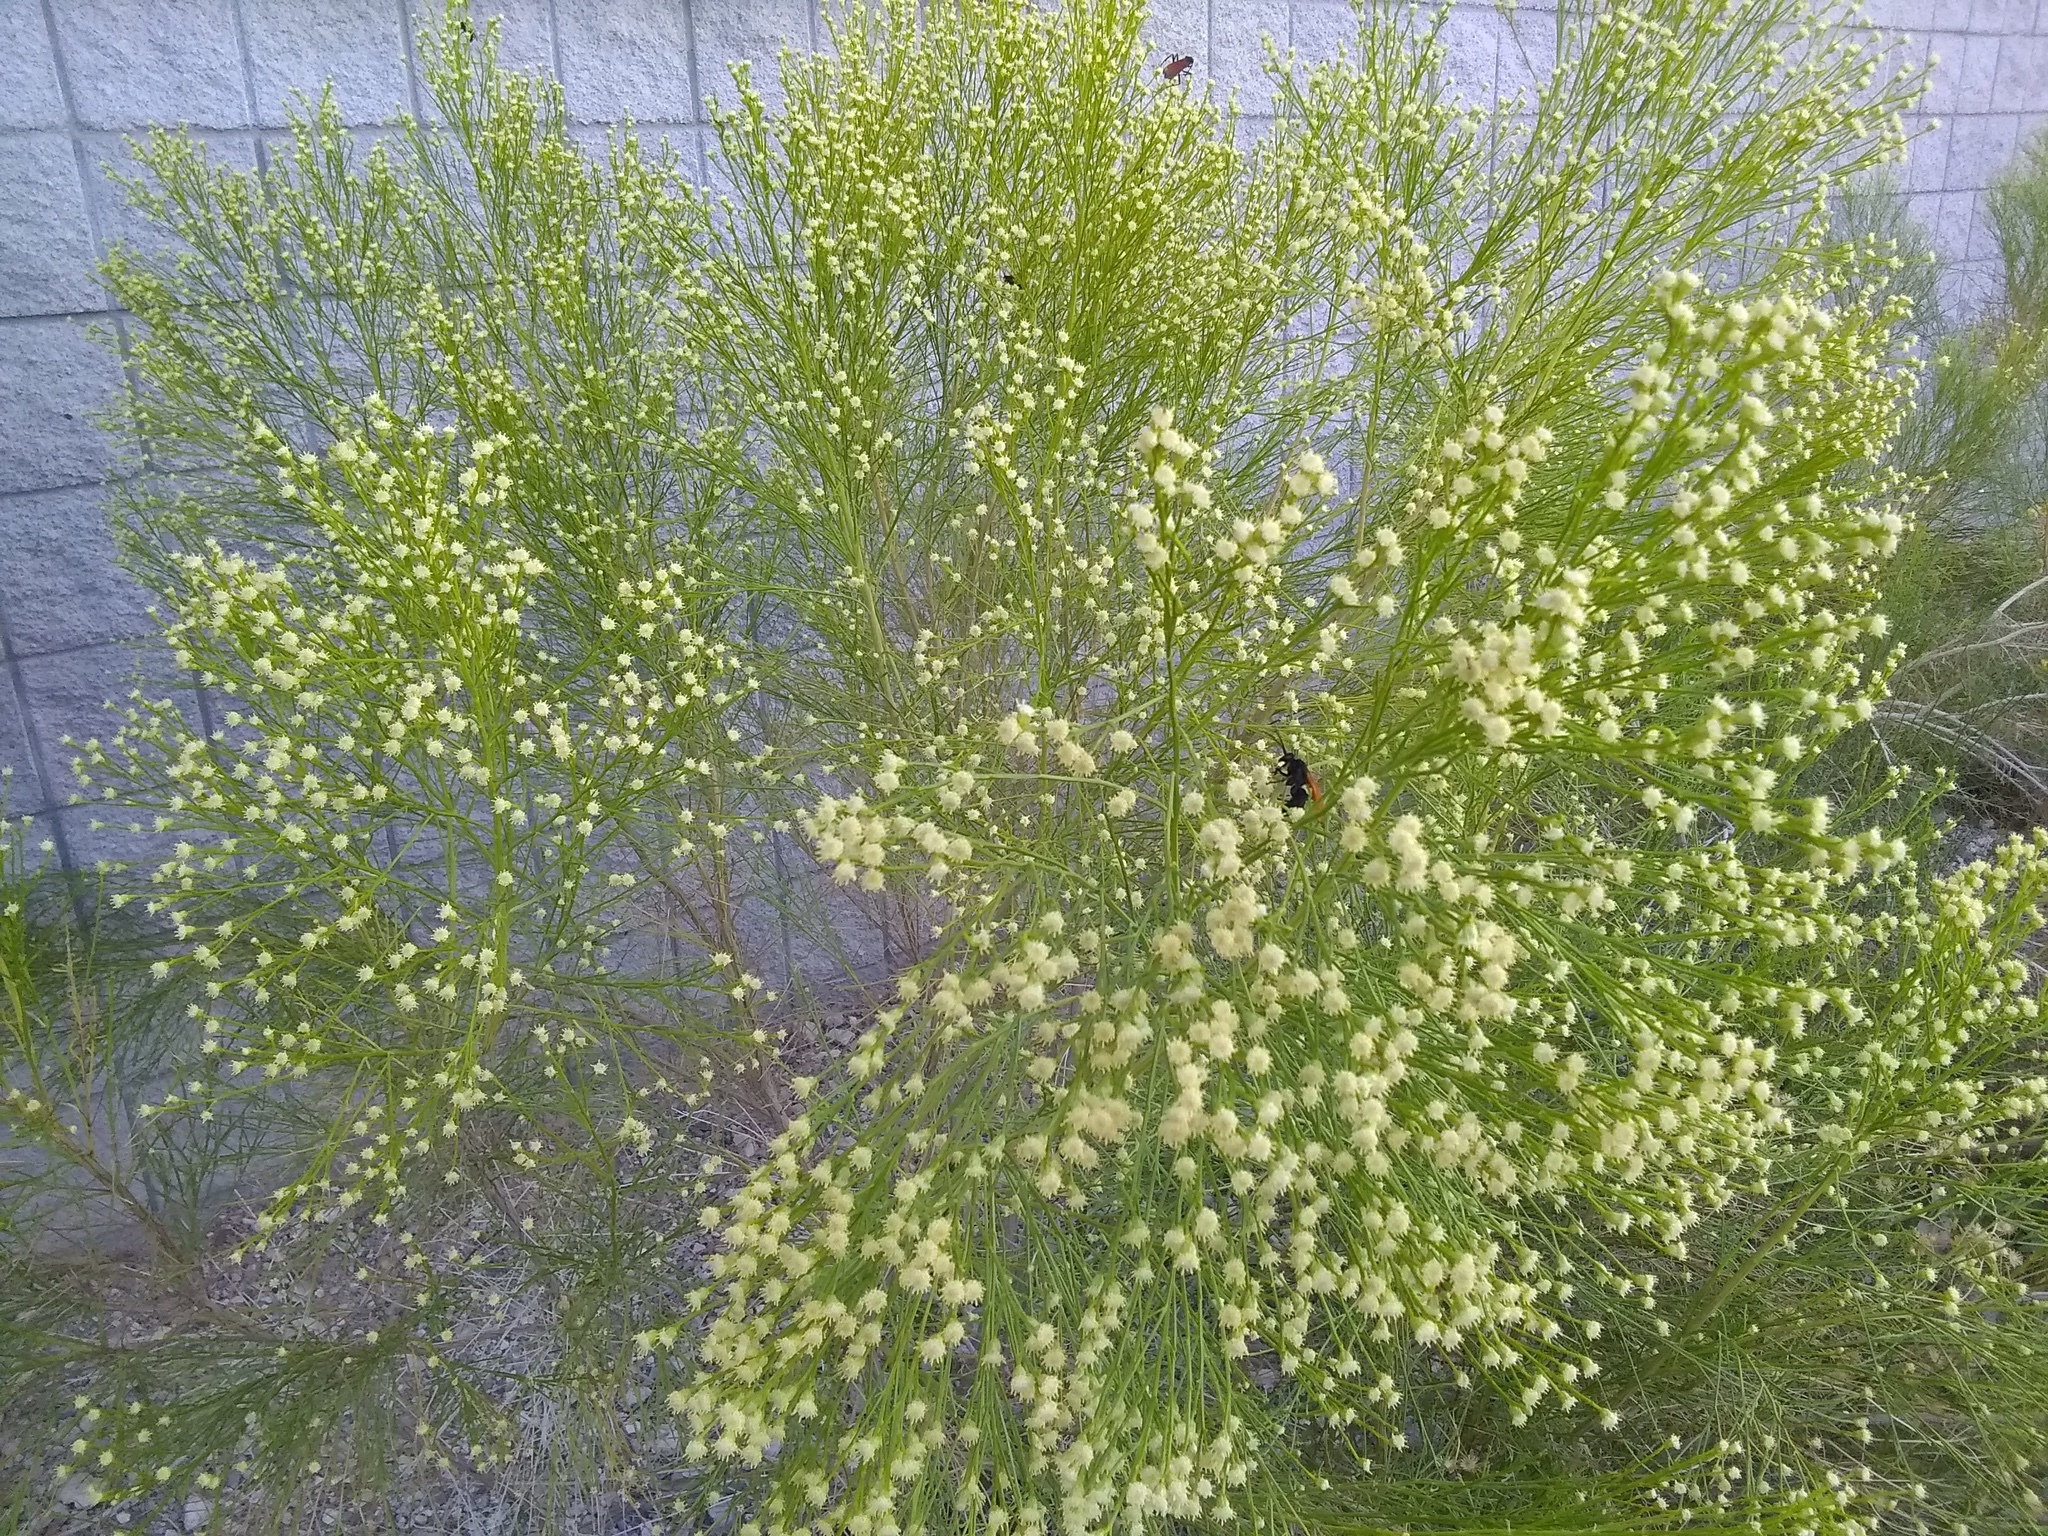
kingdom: Plantae
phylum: Tracheophyta
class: Magnoliopsida
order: Asterales
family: Asteraceae
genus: Baccharis
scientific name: Baccharis sarothroides
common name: Desert-broom
